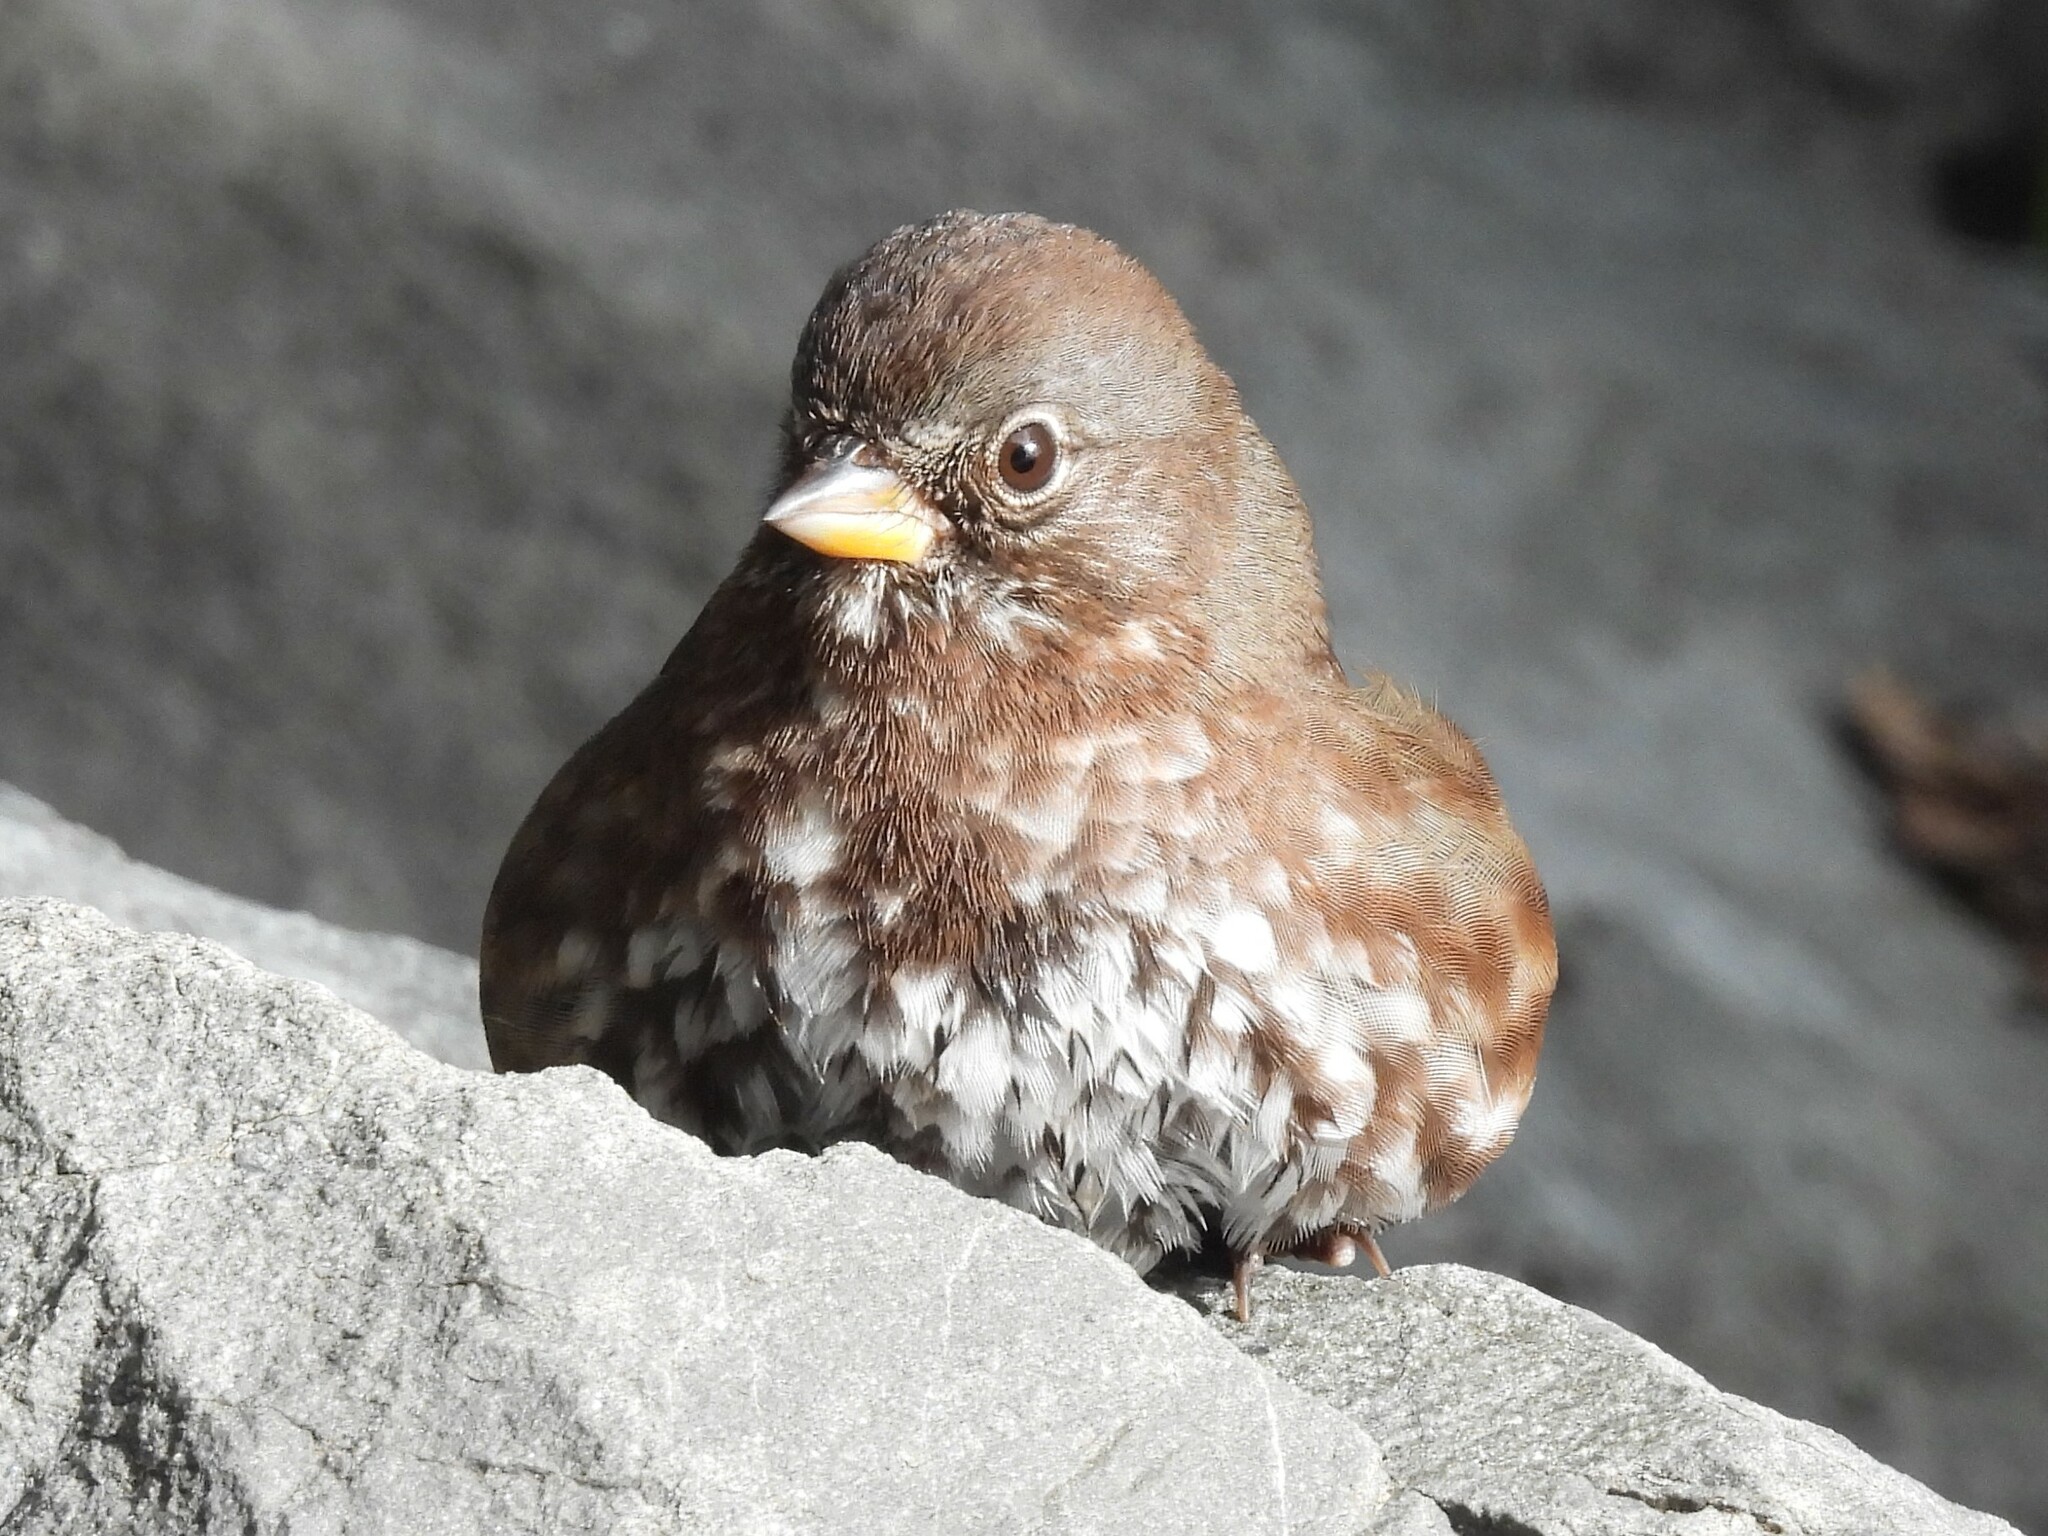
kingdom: Animalia
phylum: Chordata
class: Aves
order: Passeriformes
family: Passerellidae
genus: Passerella
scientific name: Passerella iliaca
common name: Fox sparrow
